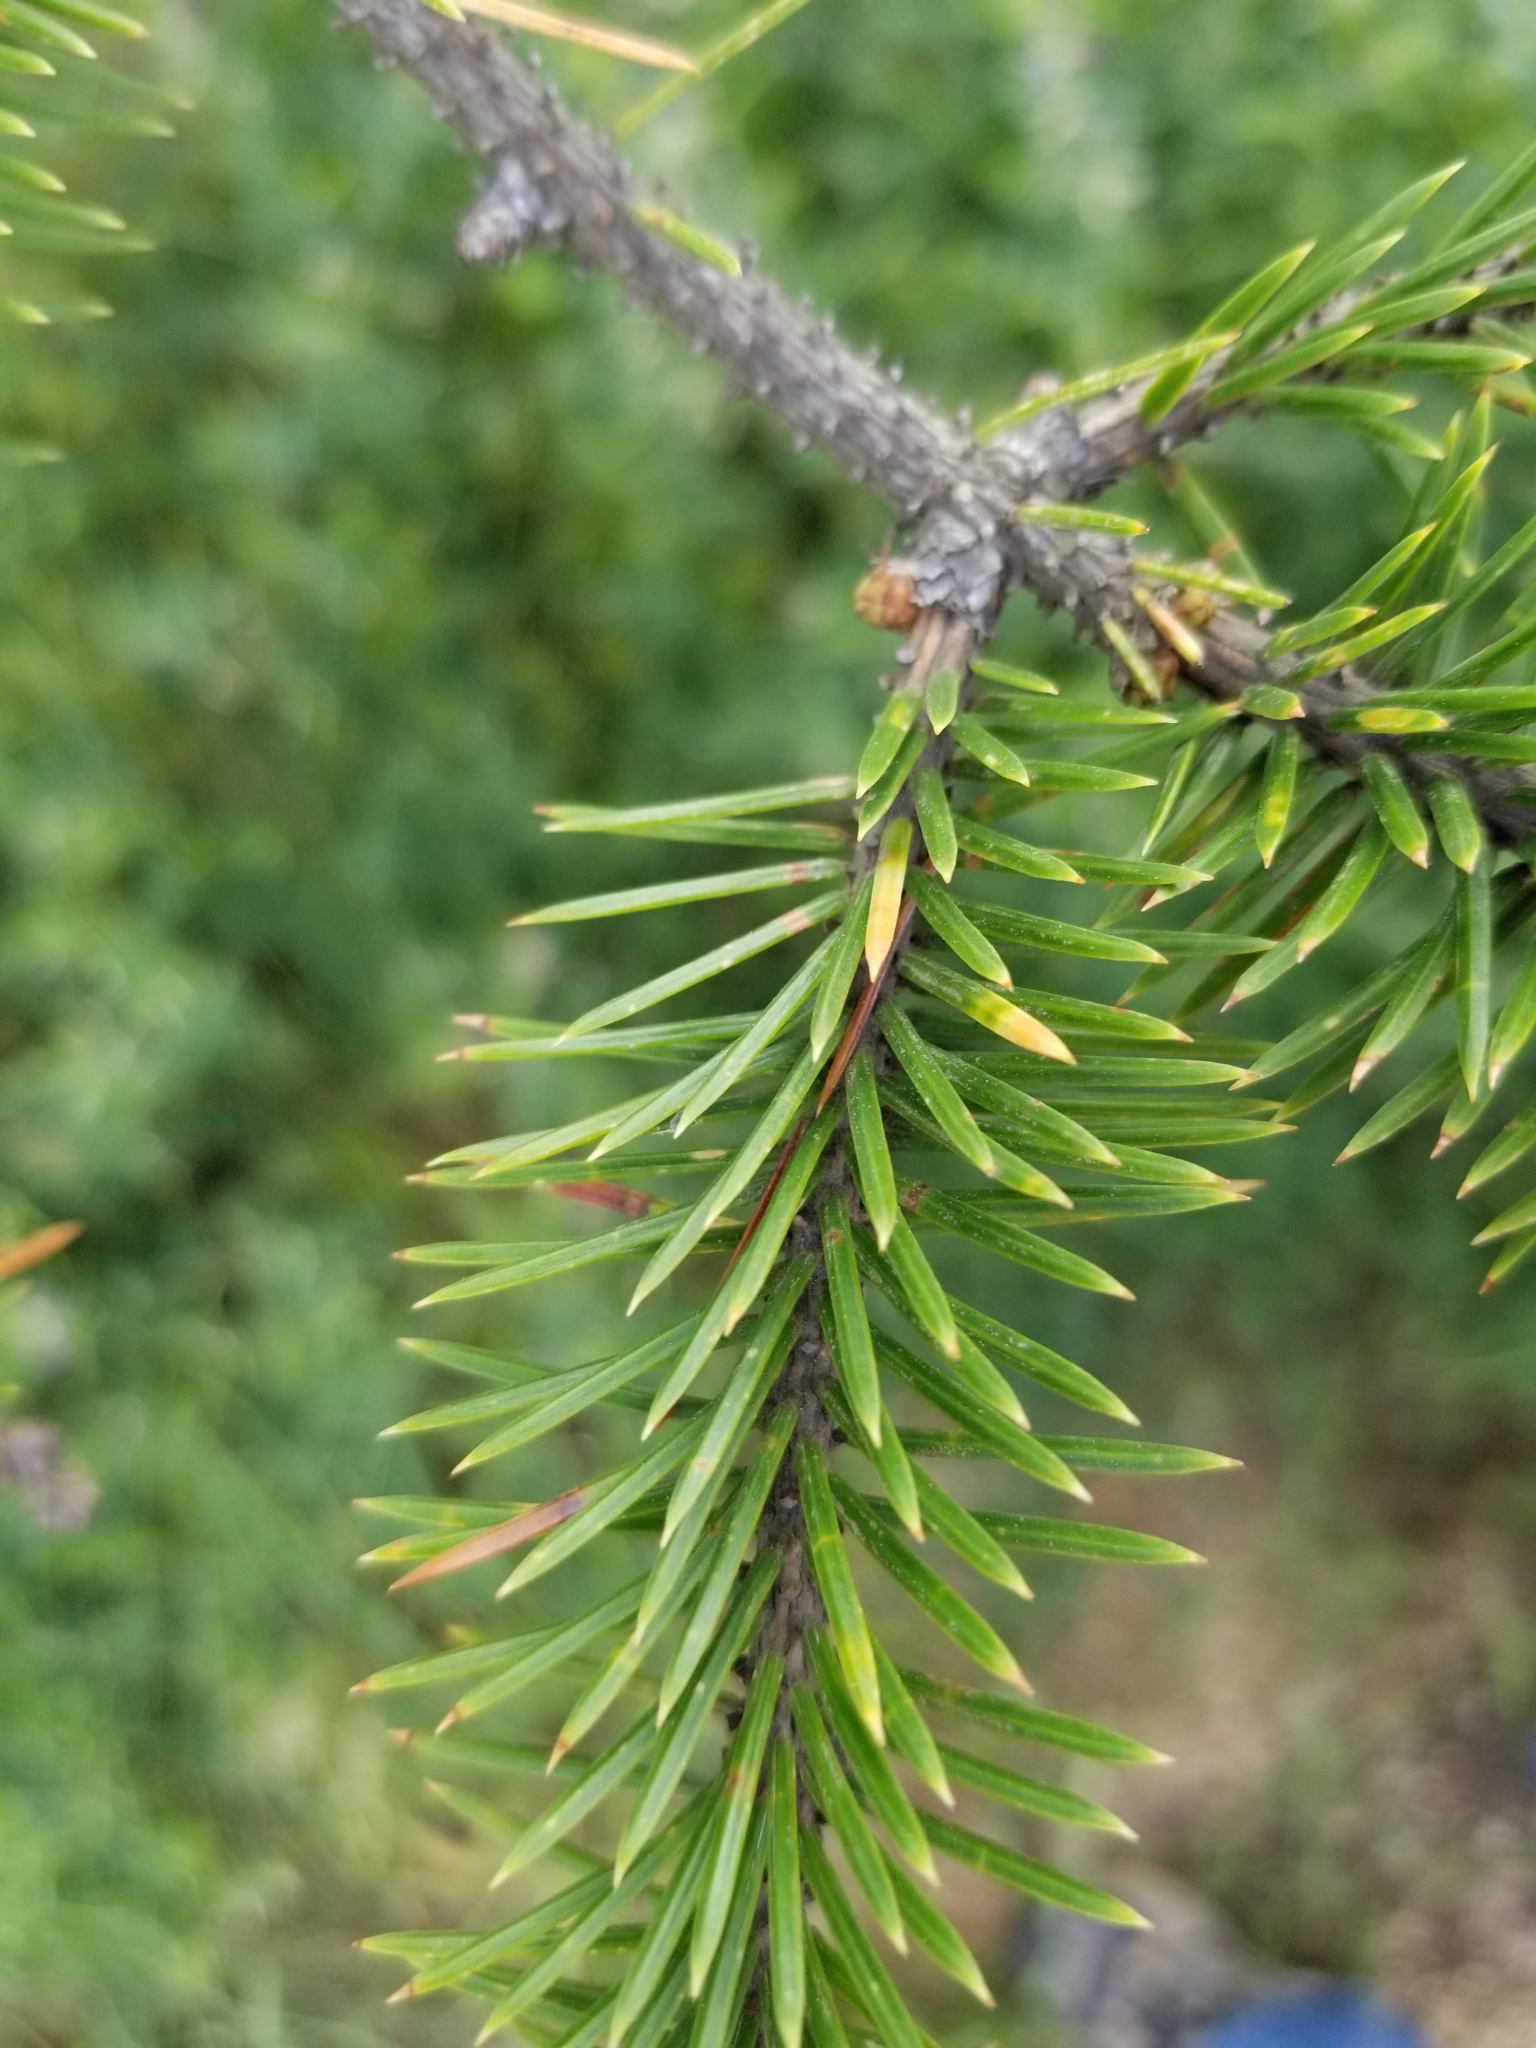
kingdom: Plantae
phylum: Tracheophyta
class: Pinopsida
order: Pinales
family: Pinaceae
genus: Picea
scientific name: Picea sitchensis
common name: Sitka spruce
